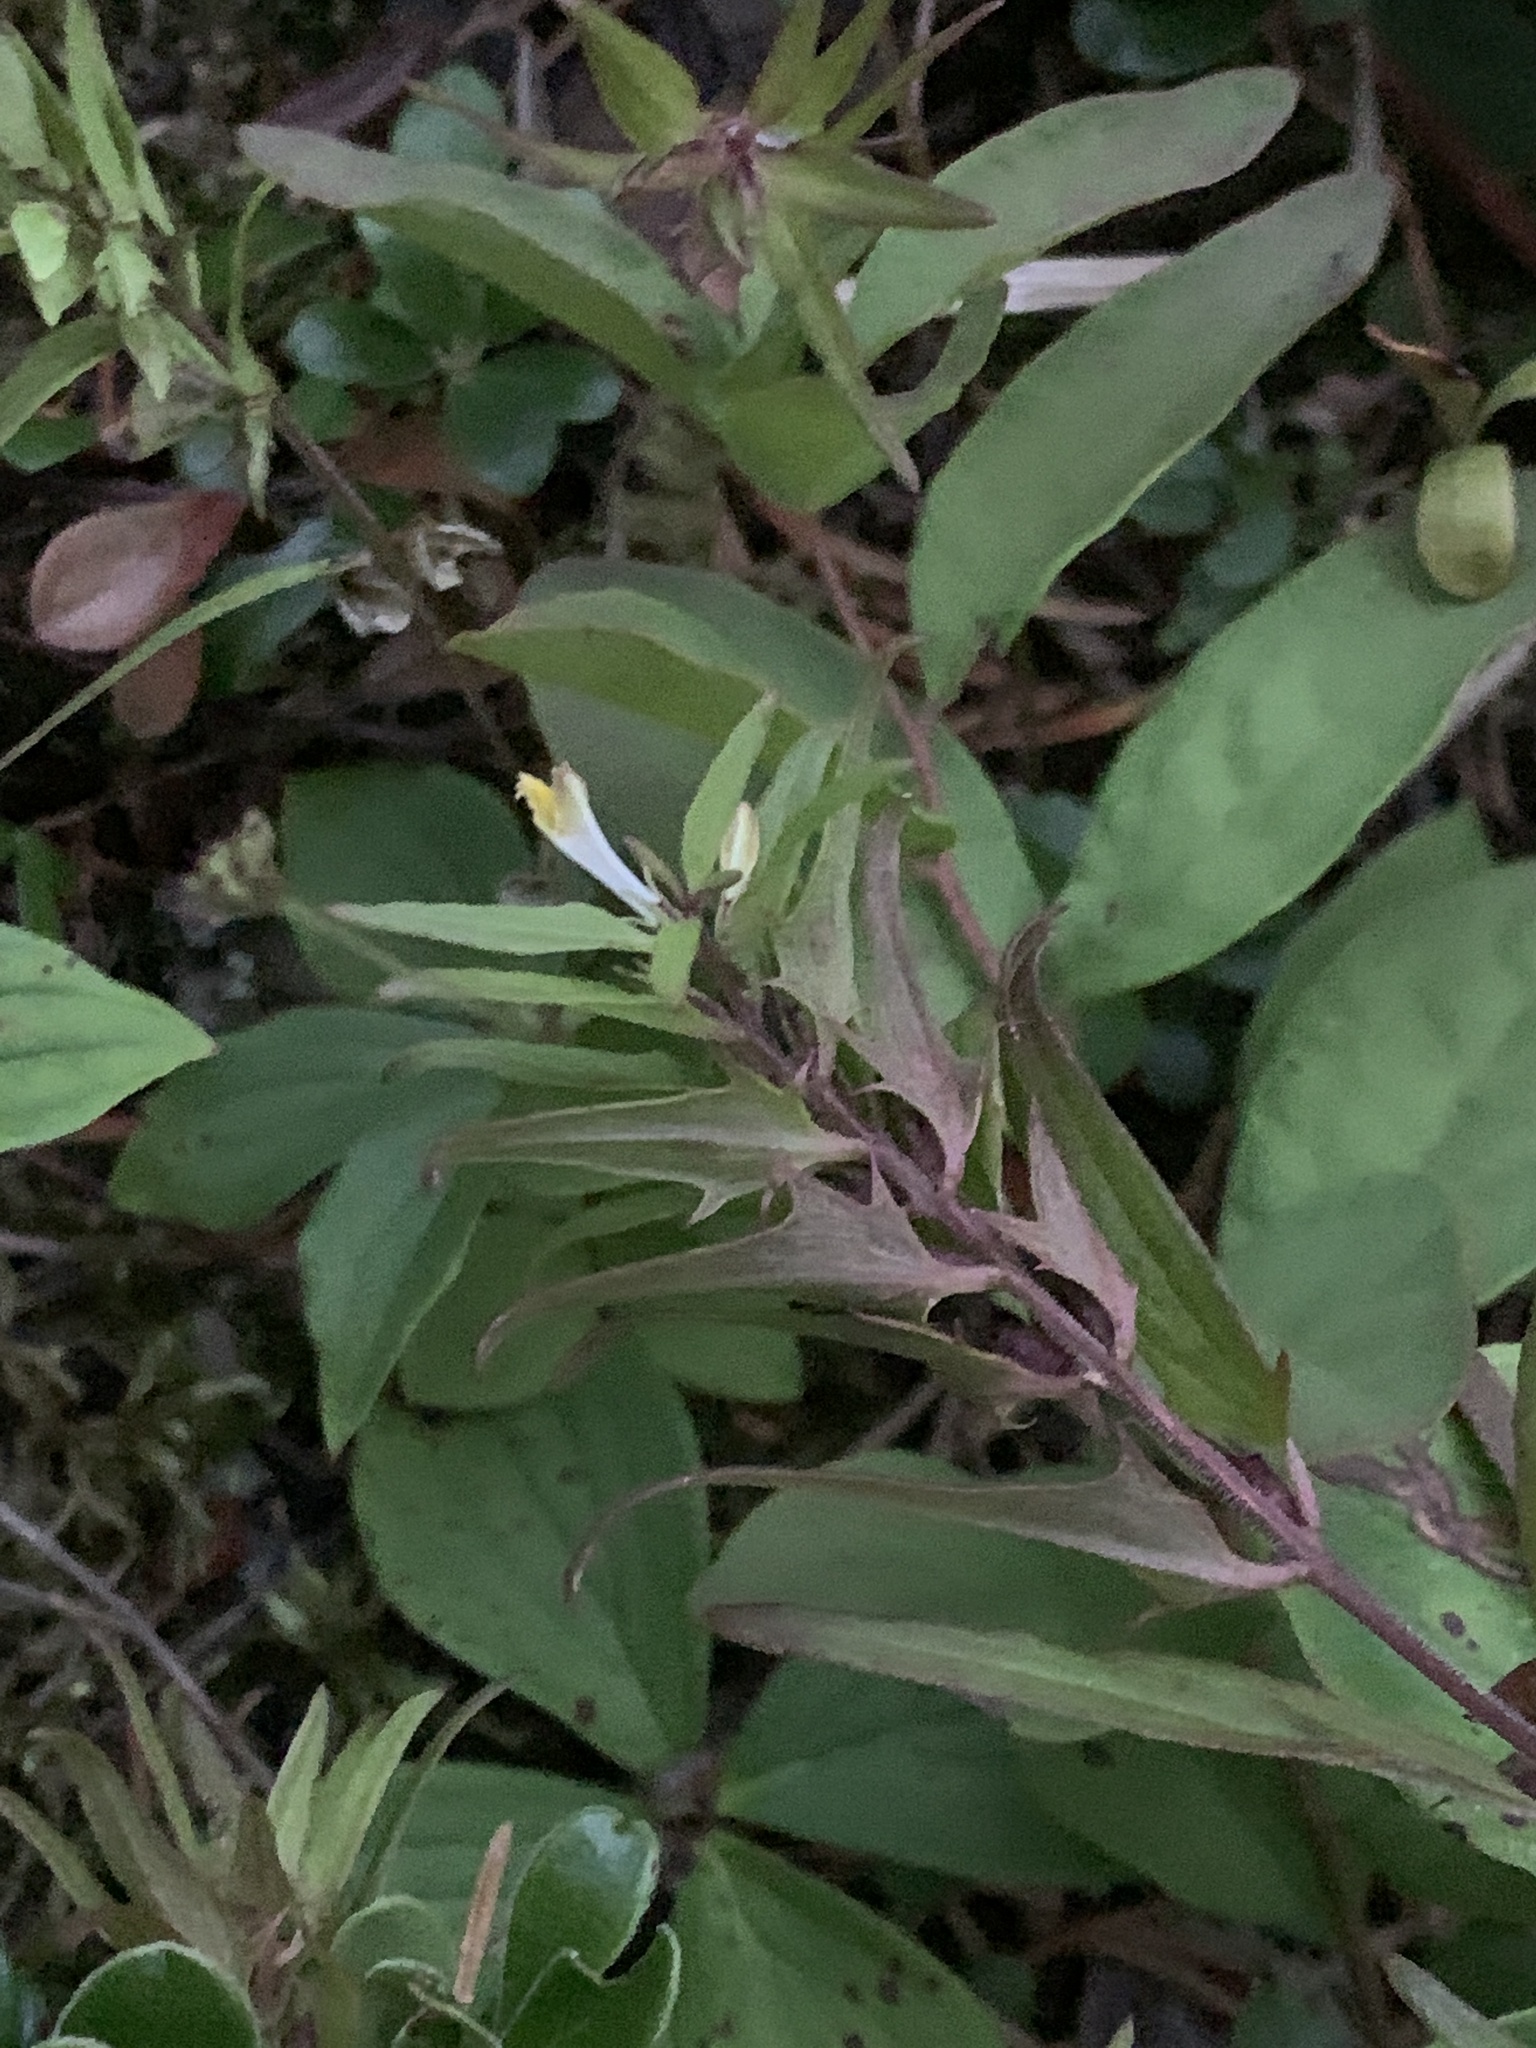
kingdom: Plantae
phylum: Tracheophyta
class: Magnoliopsida
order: Lamiales
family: Orobanchaceae
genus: Melampyrum
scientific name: Melampyrum lineare
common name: American cow-wheat
